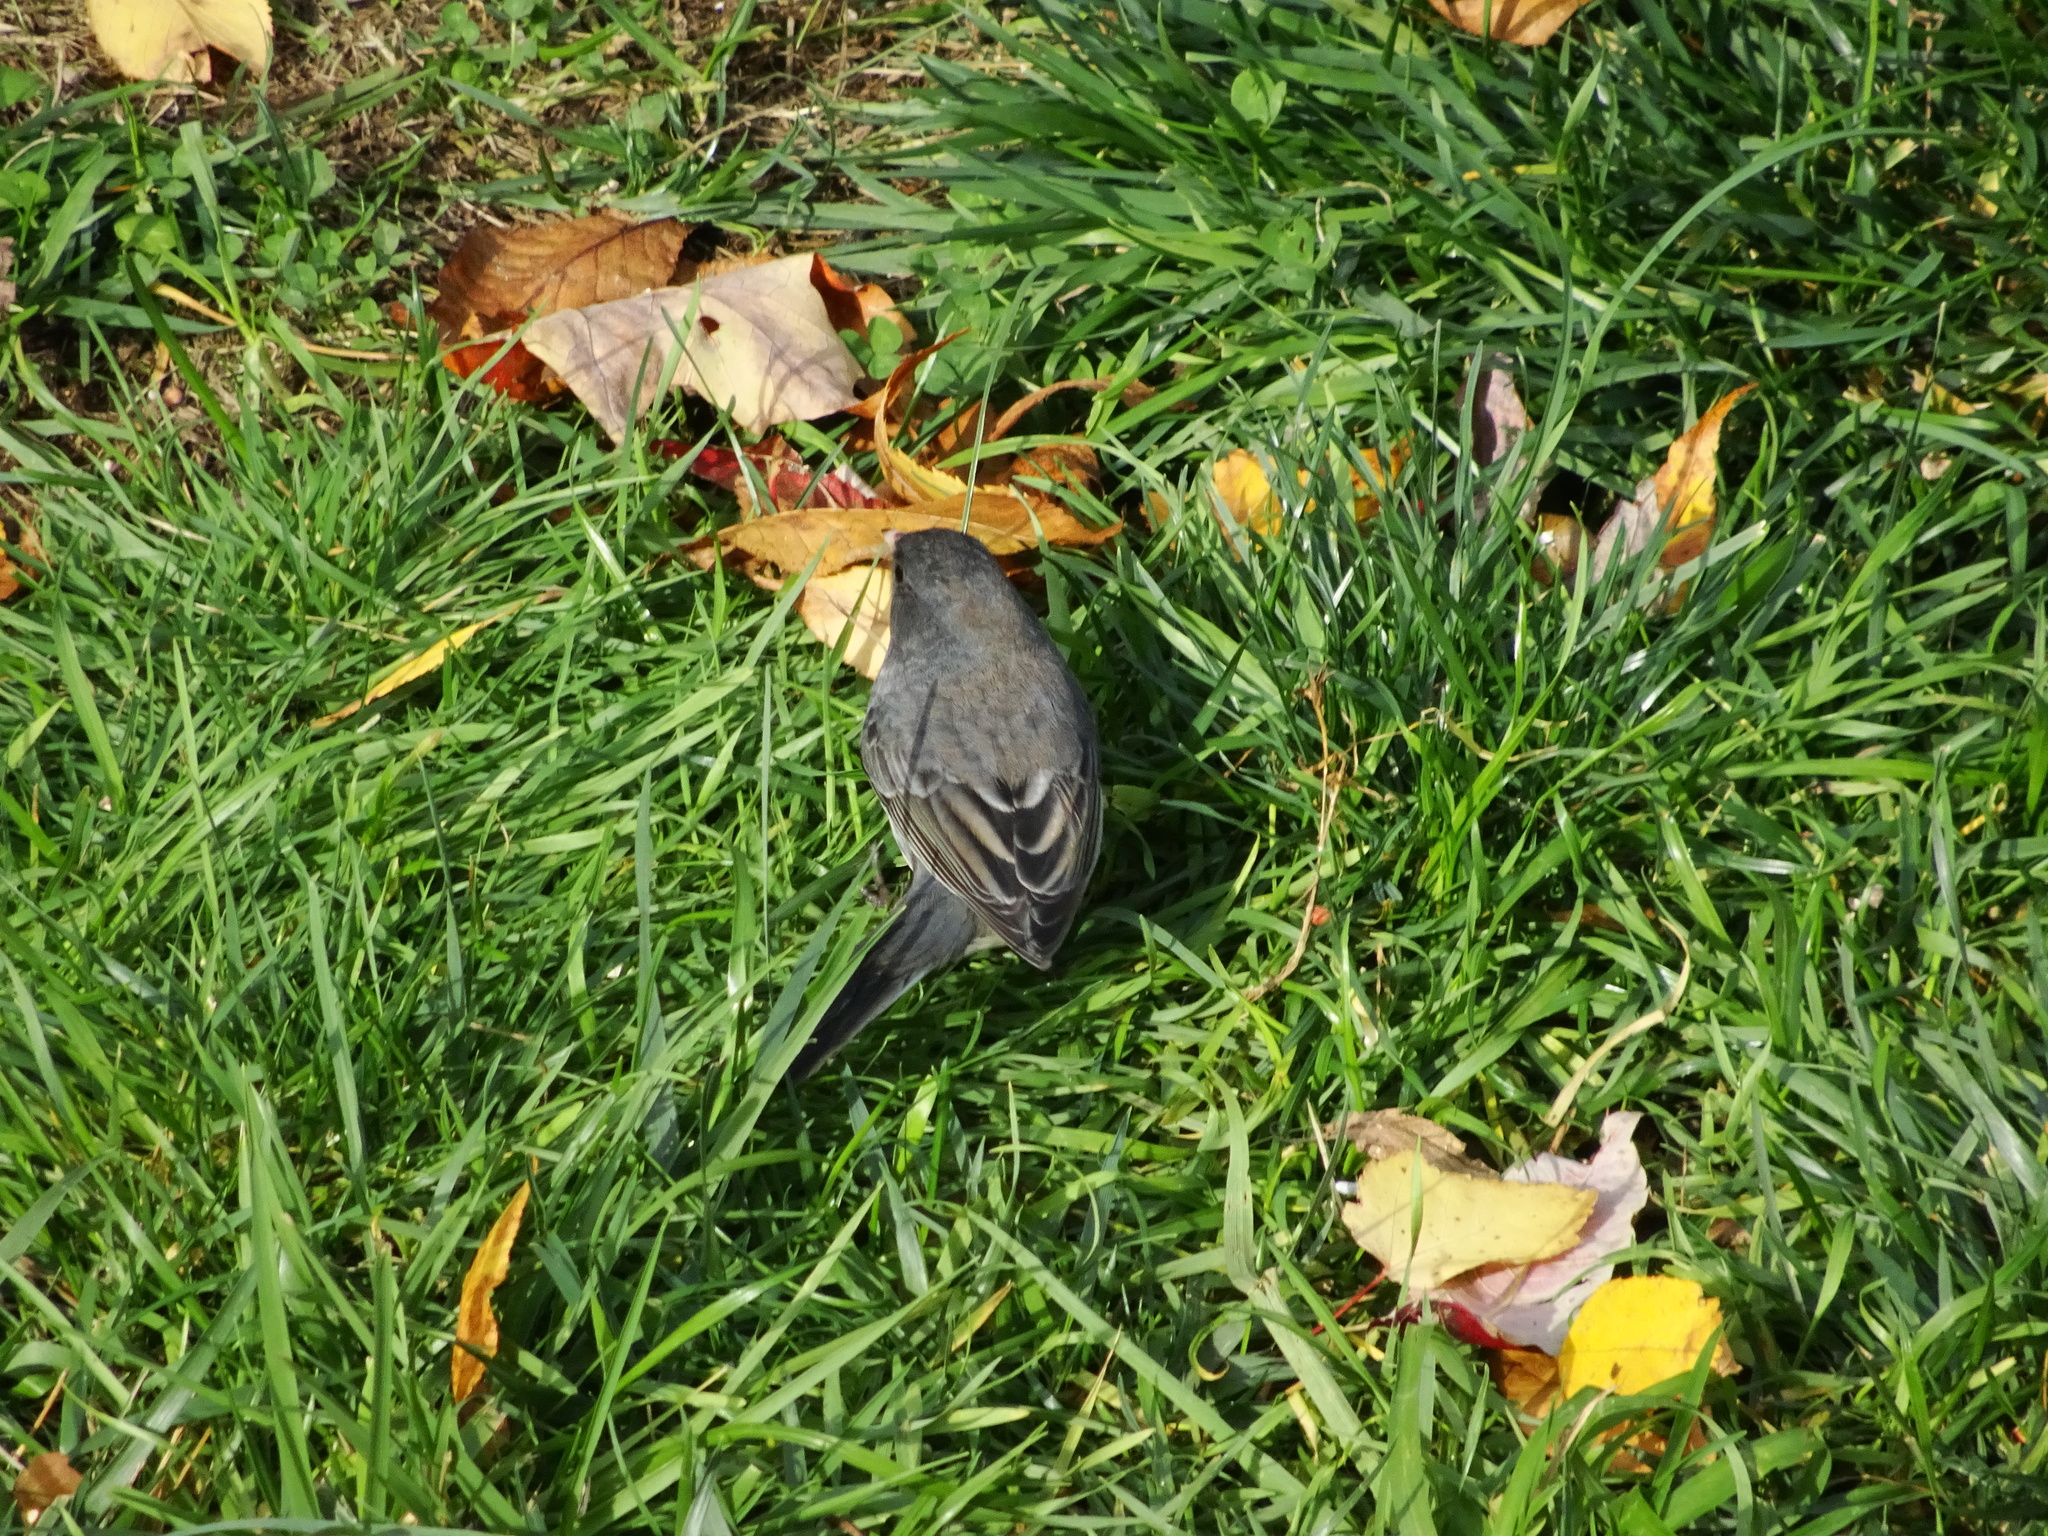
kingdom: Animalia
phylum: Chordata
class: Aves
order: Passeriformes
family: Passerellidae
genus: Junco
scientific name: Junco hyemalis
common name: Dark-eyed junco
